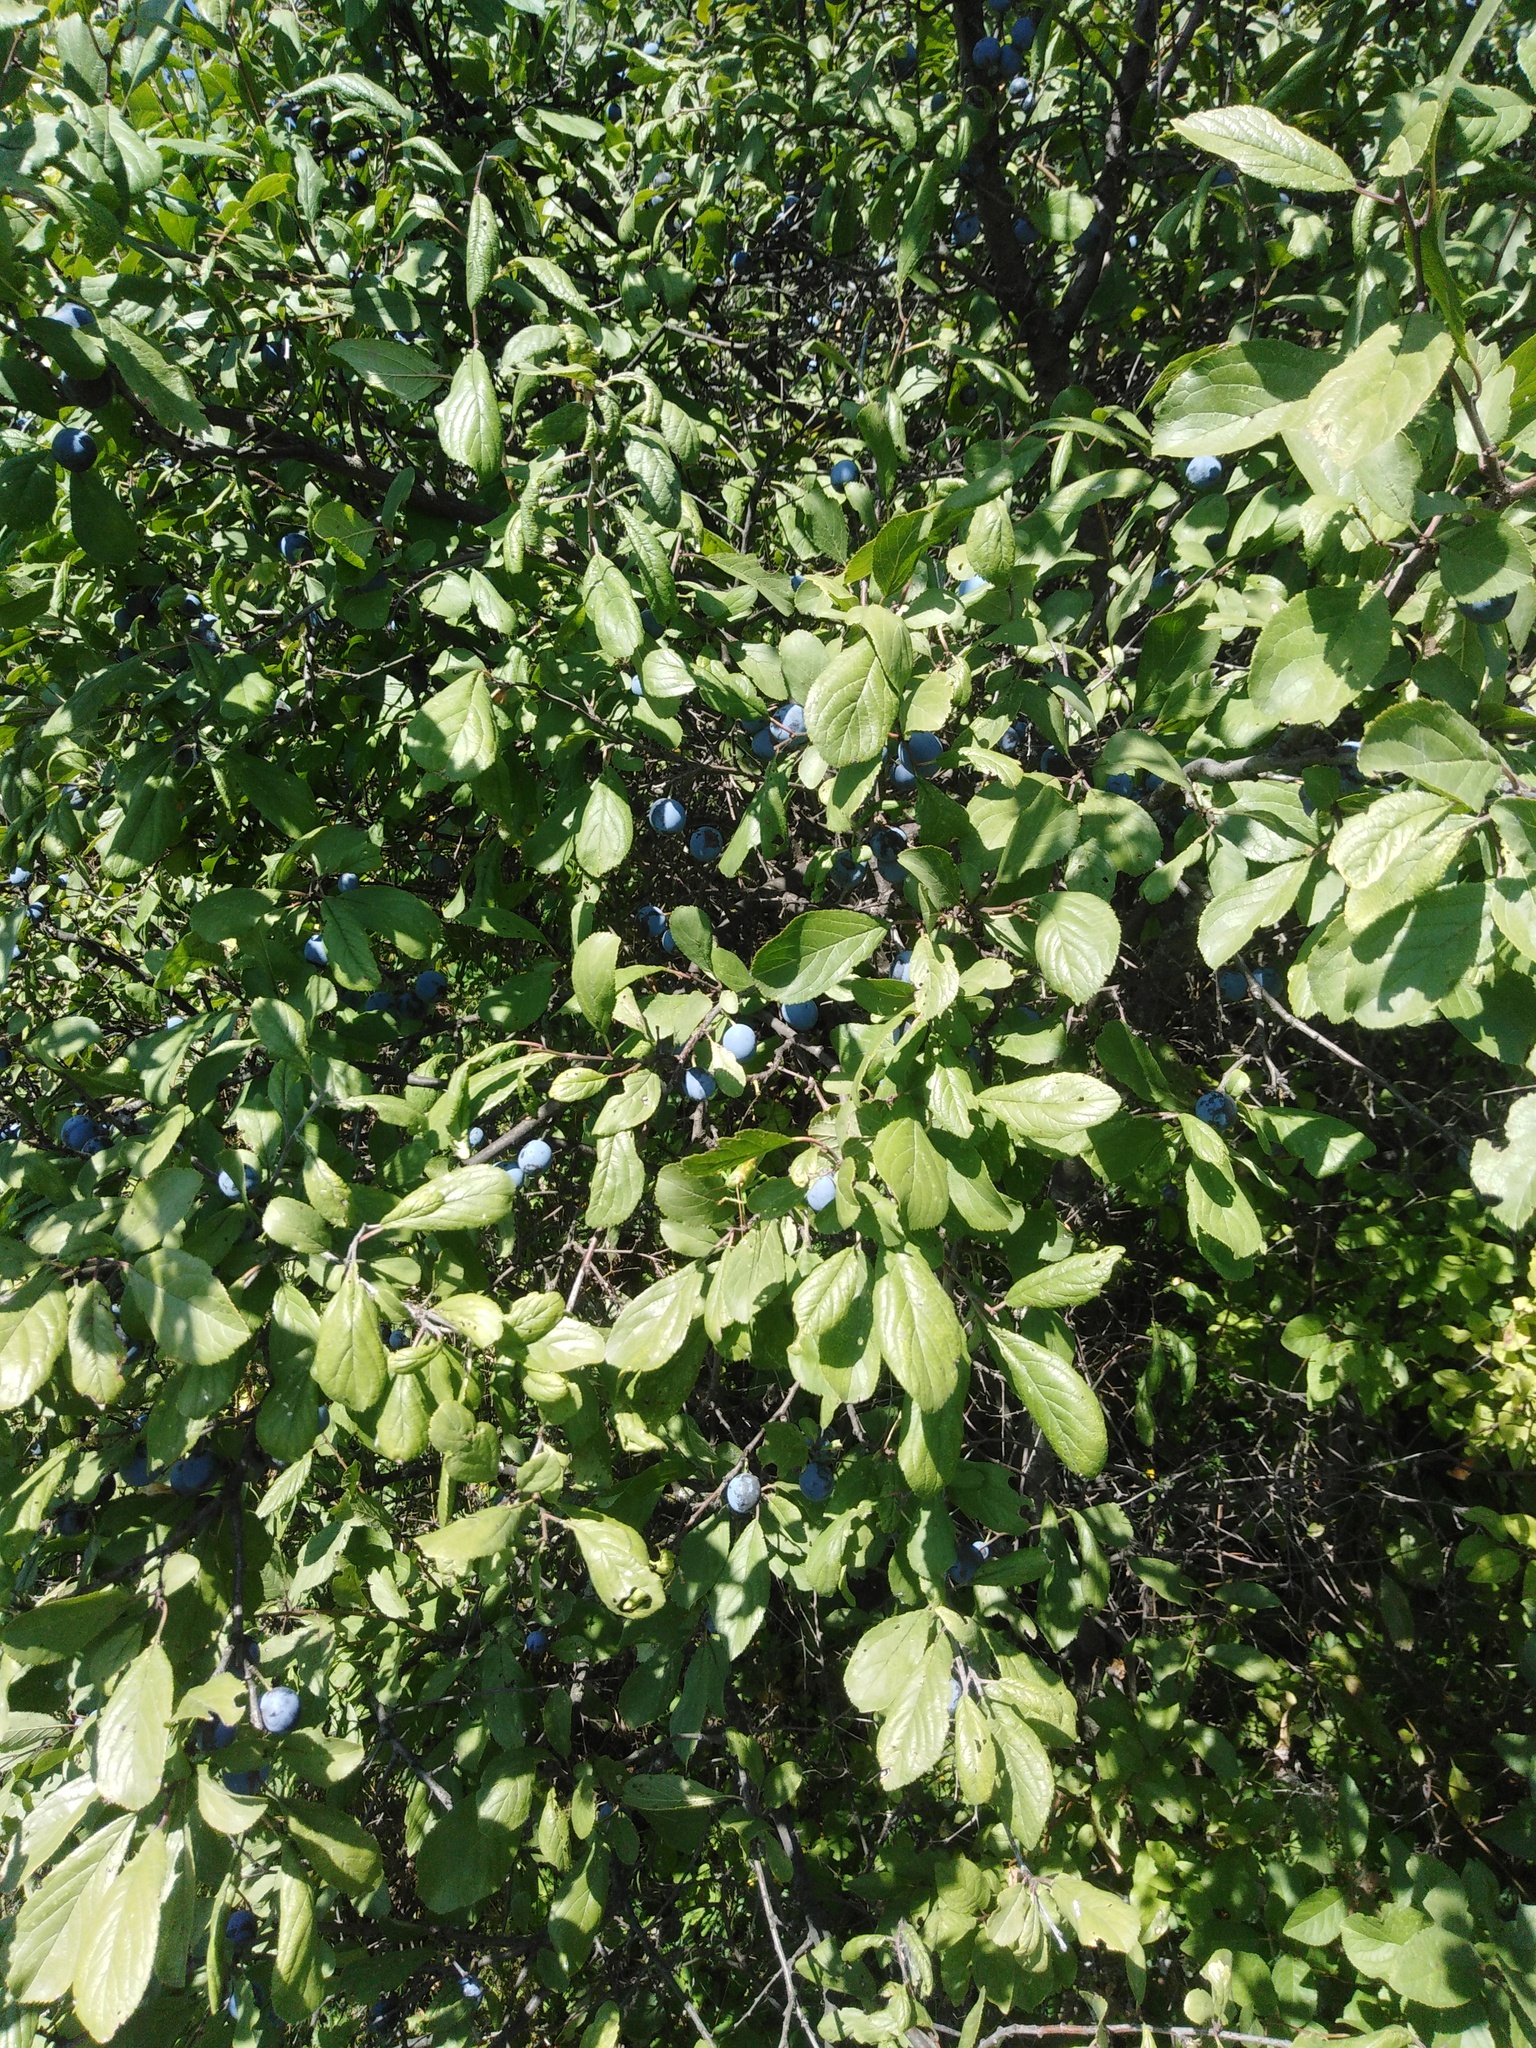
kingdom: Plantae
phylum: Tracheophyta
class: Magnoliopsida
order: Rosales
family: Rosaceae
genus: Prunus
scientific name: Prunus spinosa
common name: Blackthorn
